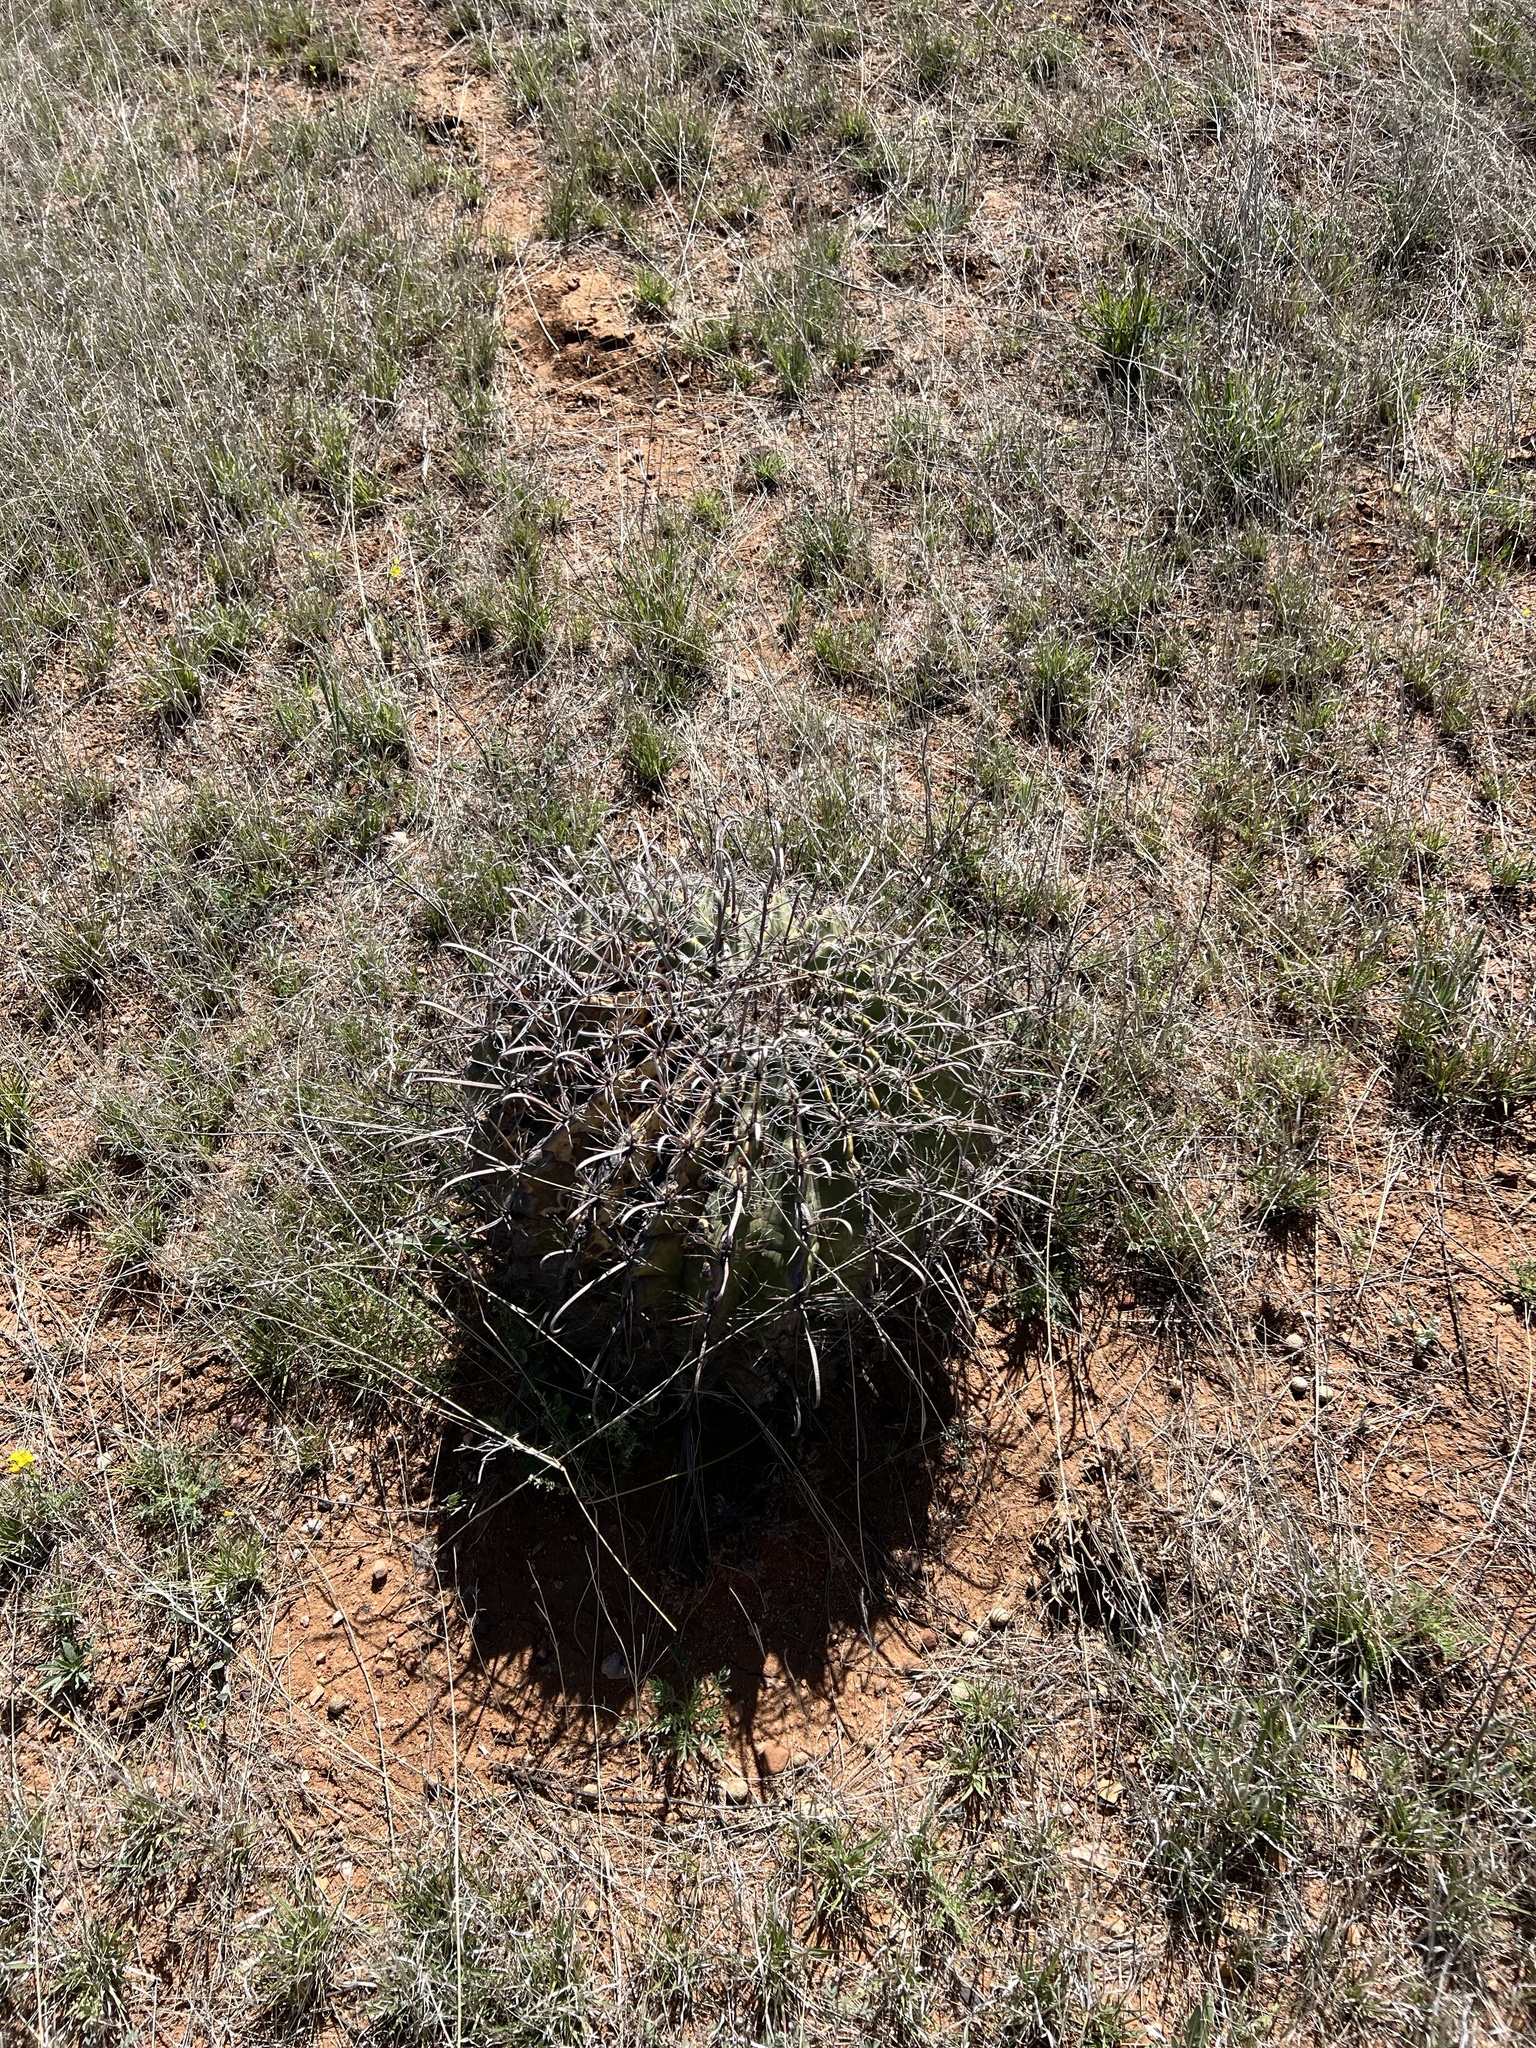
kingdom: Plantae
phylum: Tracheophyta
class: Magnoliopsida
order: Caryophyllales
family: Cactaceae
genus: Ferocactus
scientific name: Ferocactus wislizeni
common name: Candy barrel cactus
